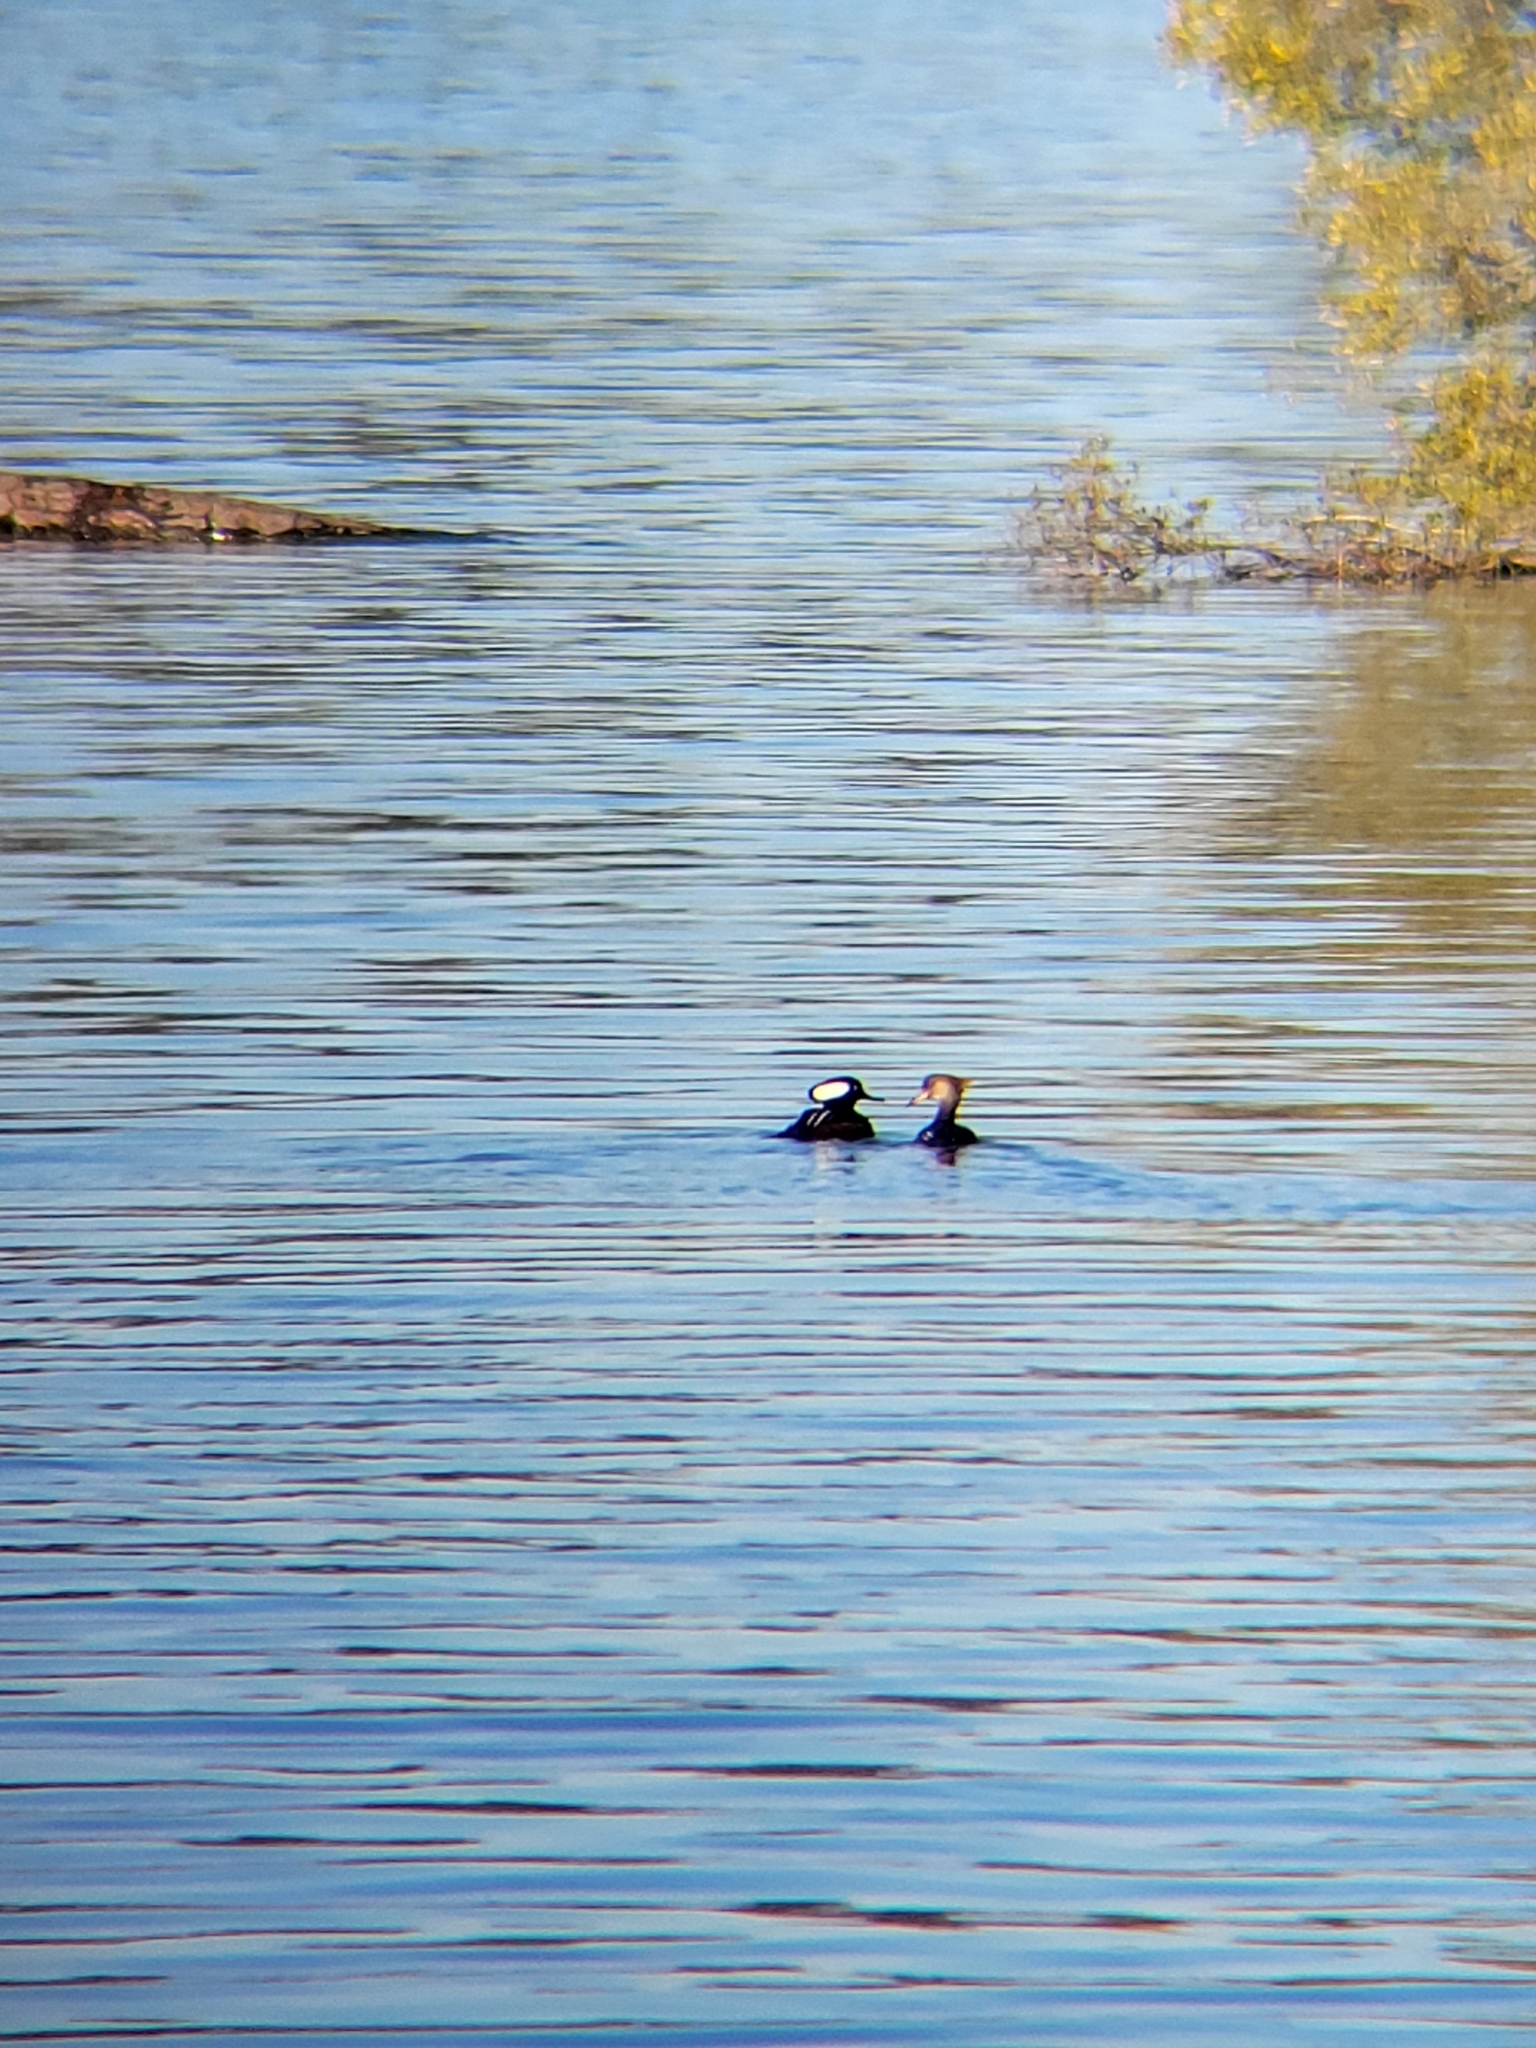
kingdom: Animalia
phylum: Chordata
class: Aves
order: Anseriformes
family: Anatidae
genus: Lophodytes
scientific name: Lophodytes cucullatus
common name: Hooded merganser
